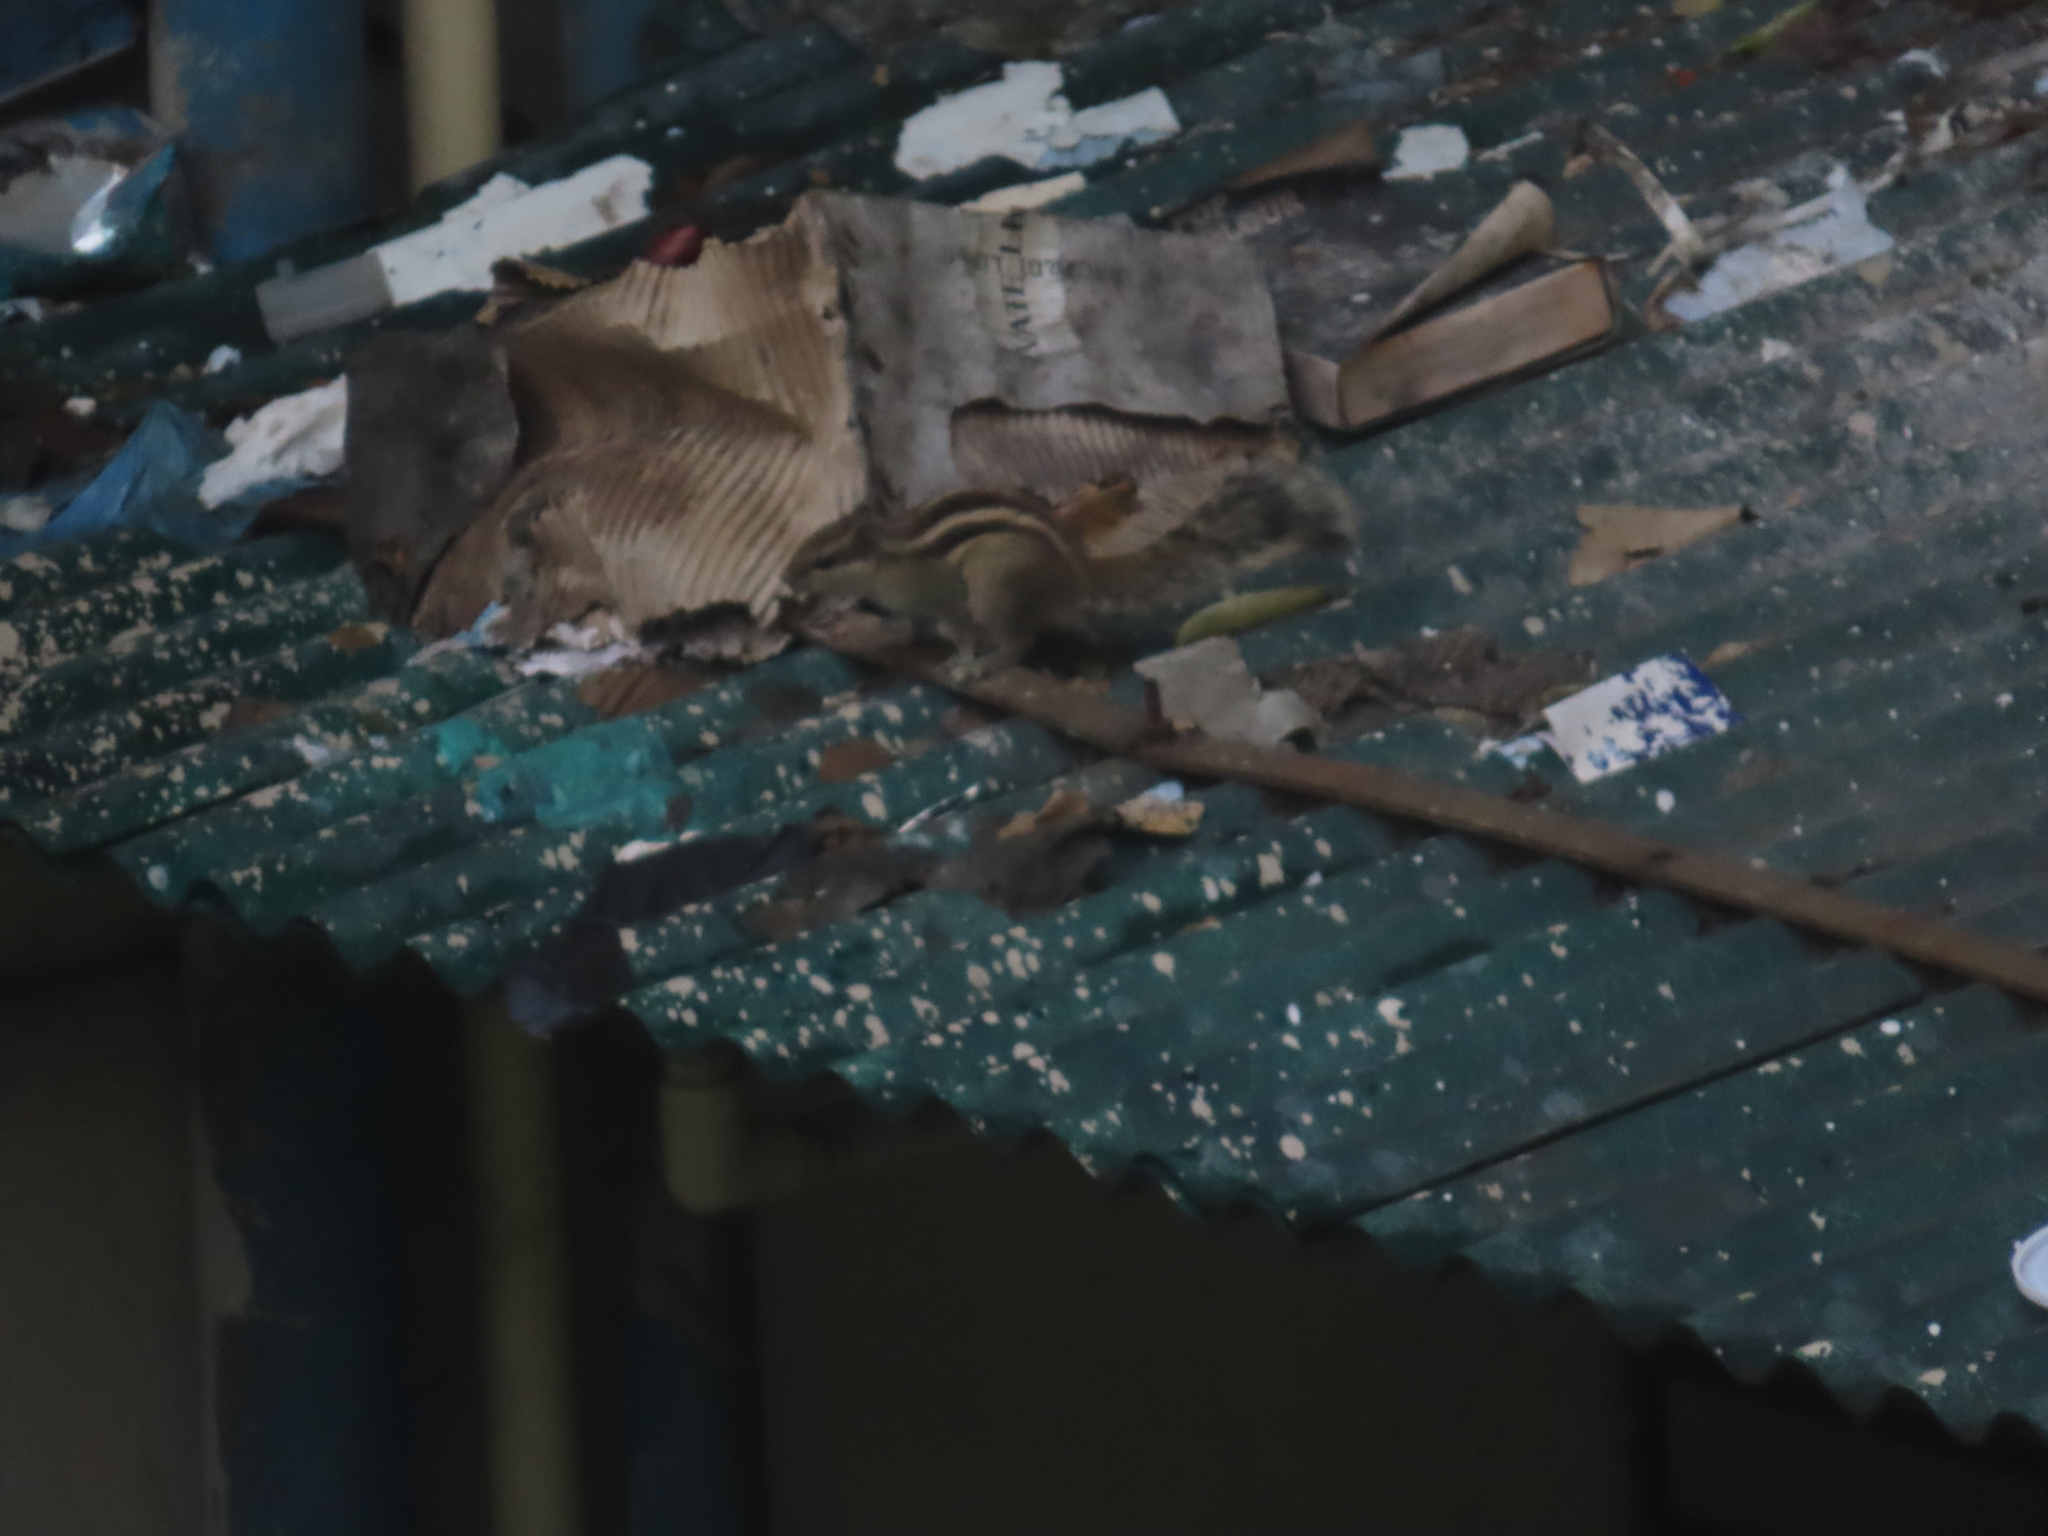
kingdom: Animalia
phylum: Chordata
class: Mammalia
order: Rodentia
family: Sciuridae
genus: Funambulus
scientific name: Funambulus pennantii
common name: Northern palm squirrel
